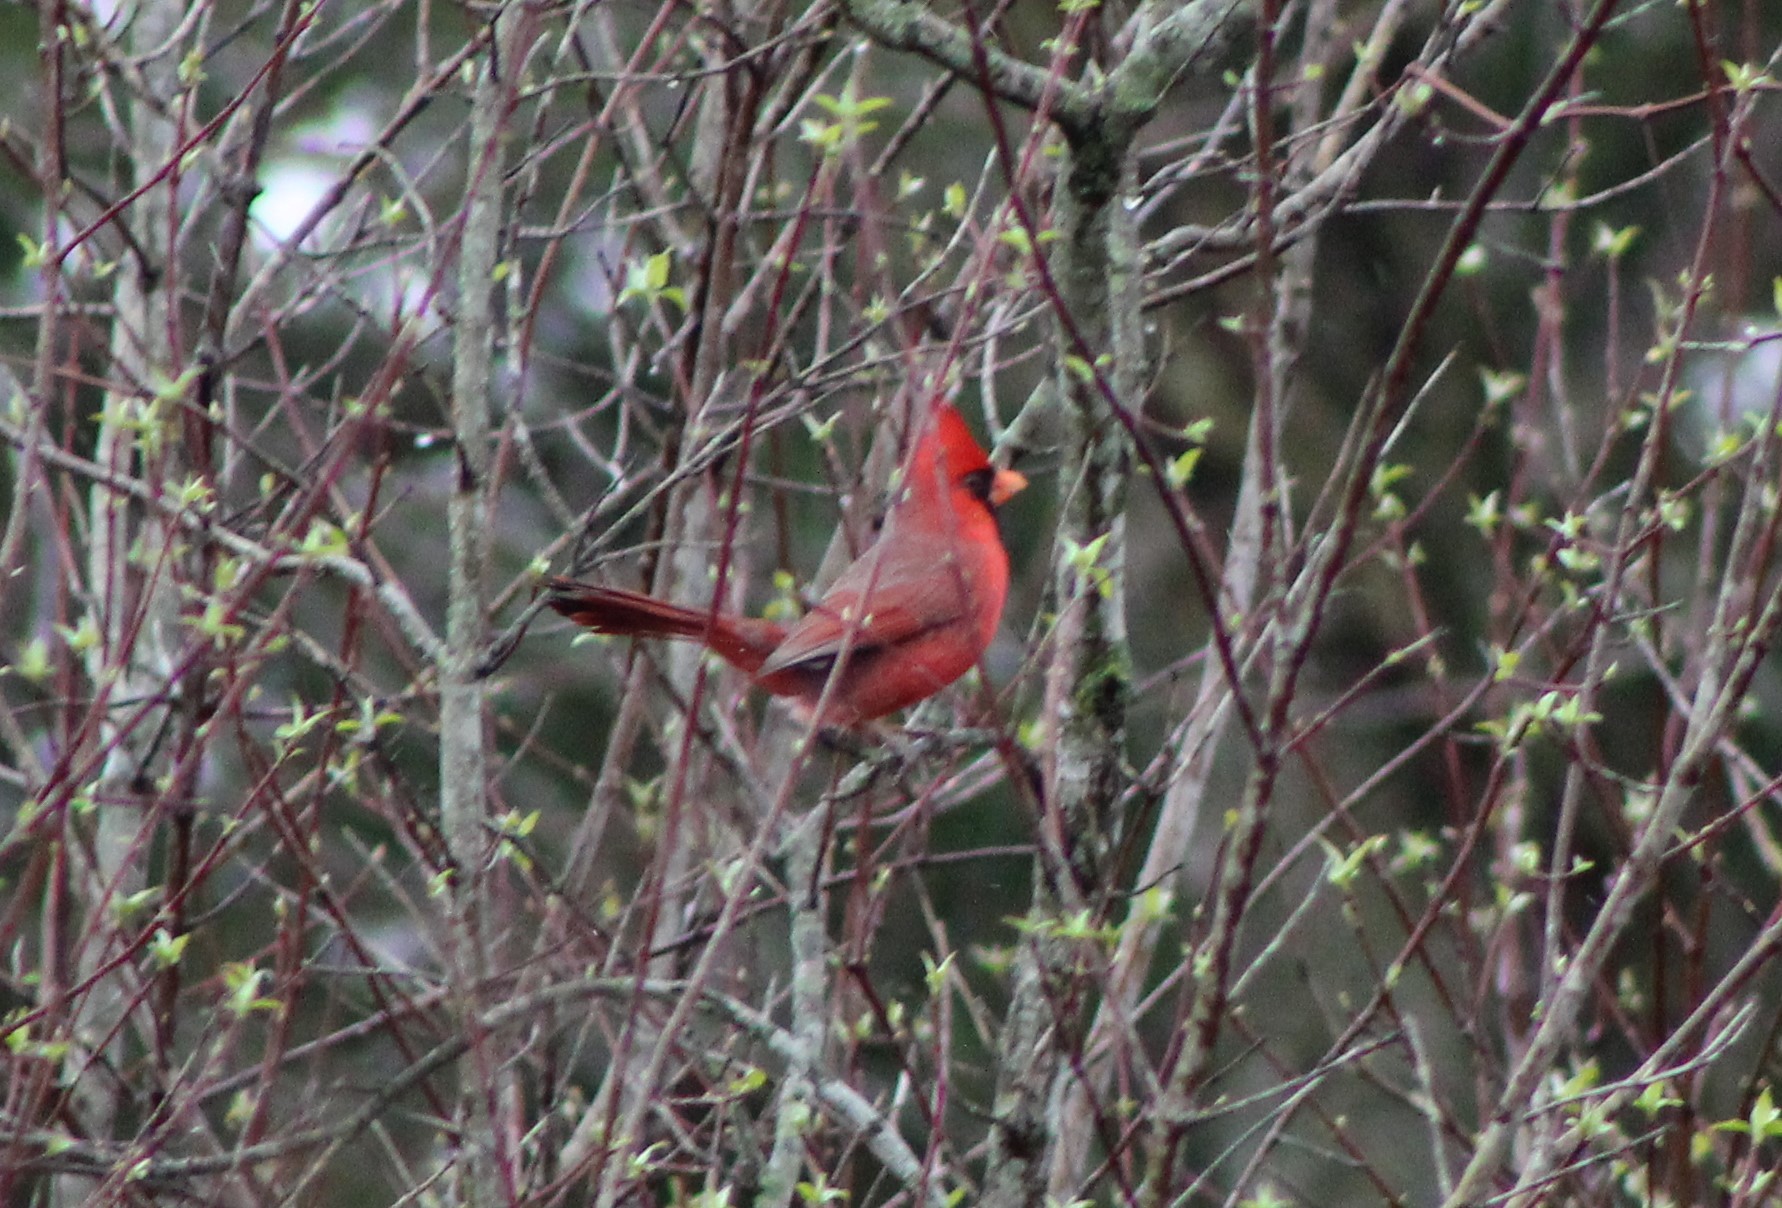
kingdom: Animalia
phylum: Chordata
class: Aves
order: Passeriformes
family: Cardinalidae
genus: Cardinalis
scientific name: Cardinalis cardinalis
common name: Northern cardinal
